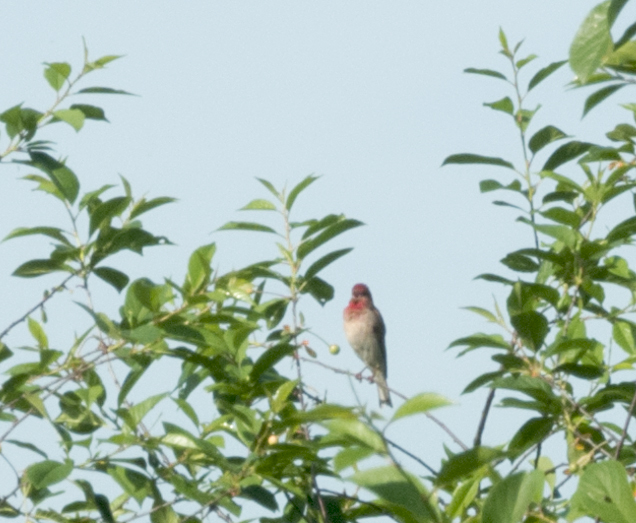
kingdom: Animalia
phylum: Chordata
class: Aves
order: Passeriformes
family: Fringillidae
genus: Carpodacus
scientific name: Carpodacus erythrinus
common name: Common rosefinch
